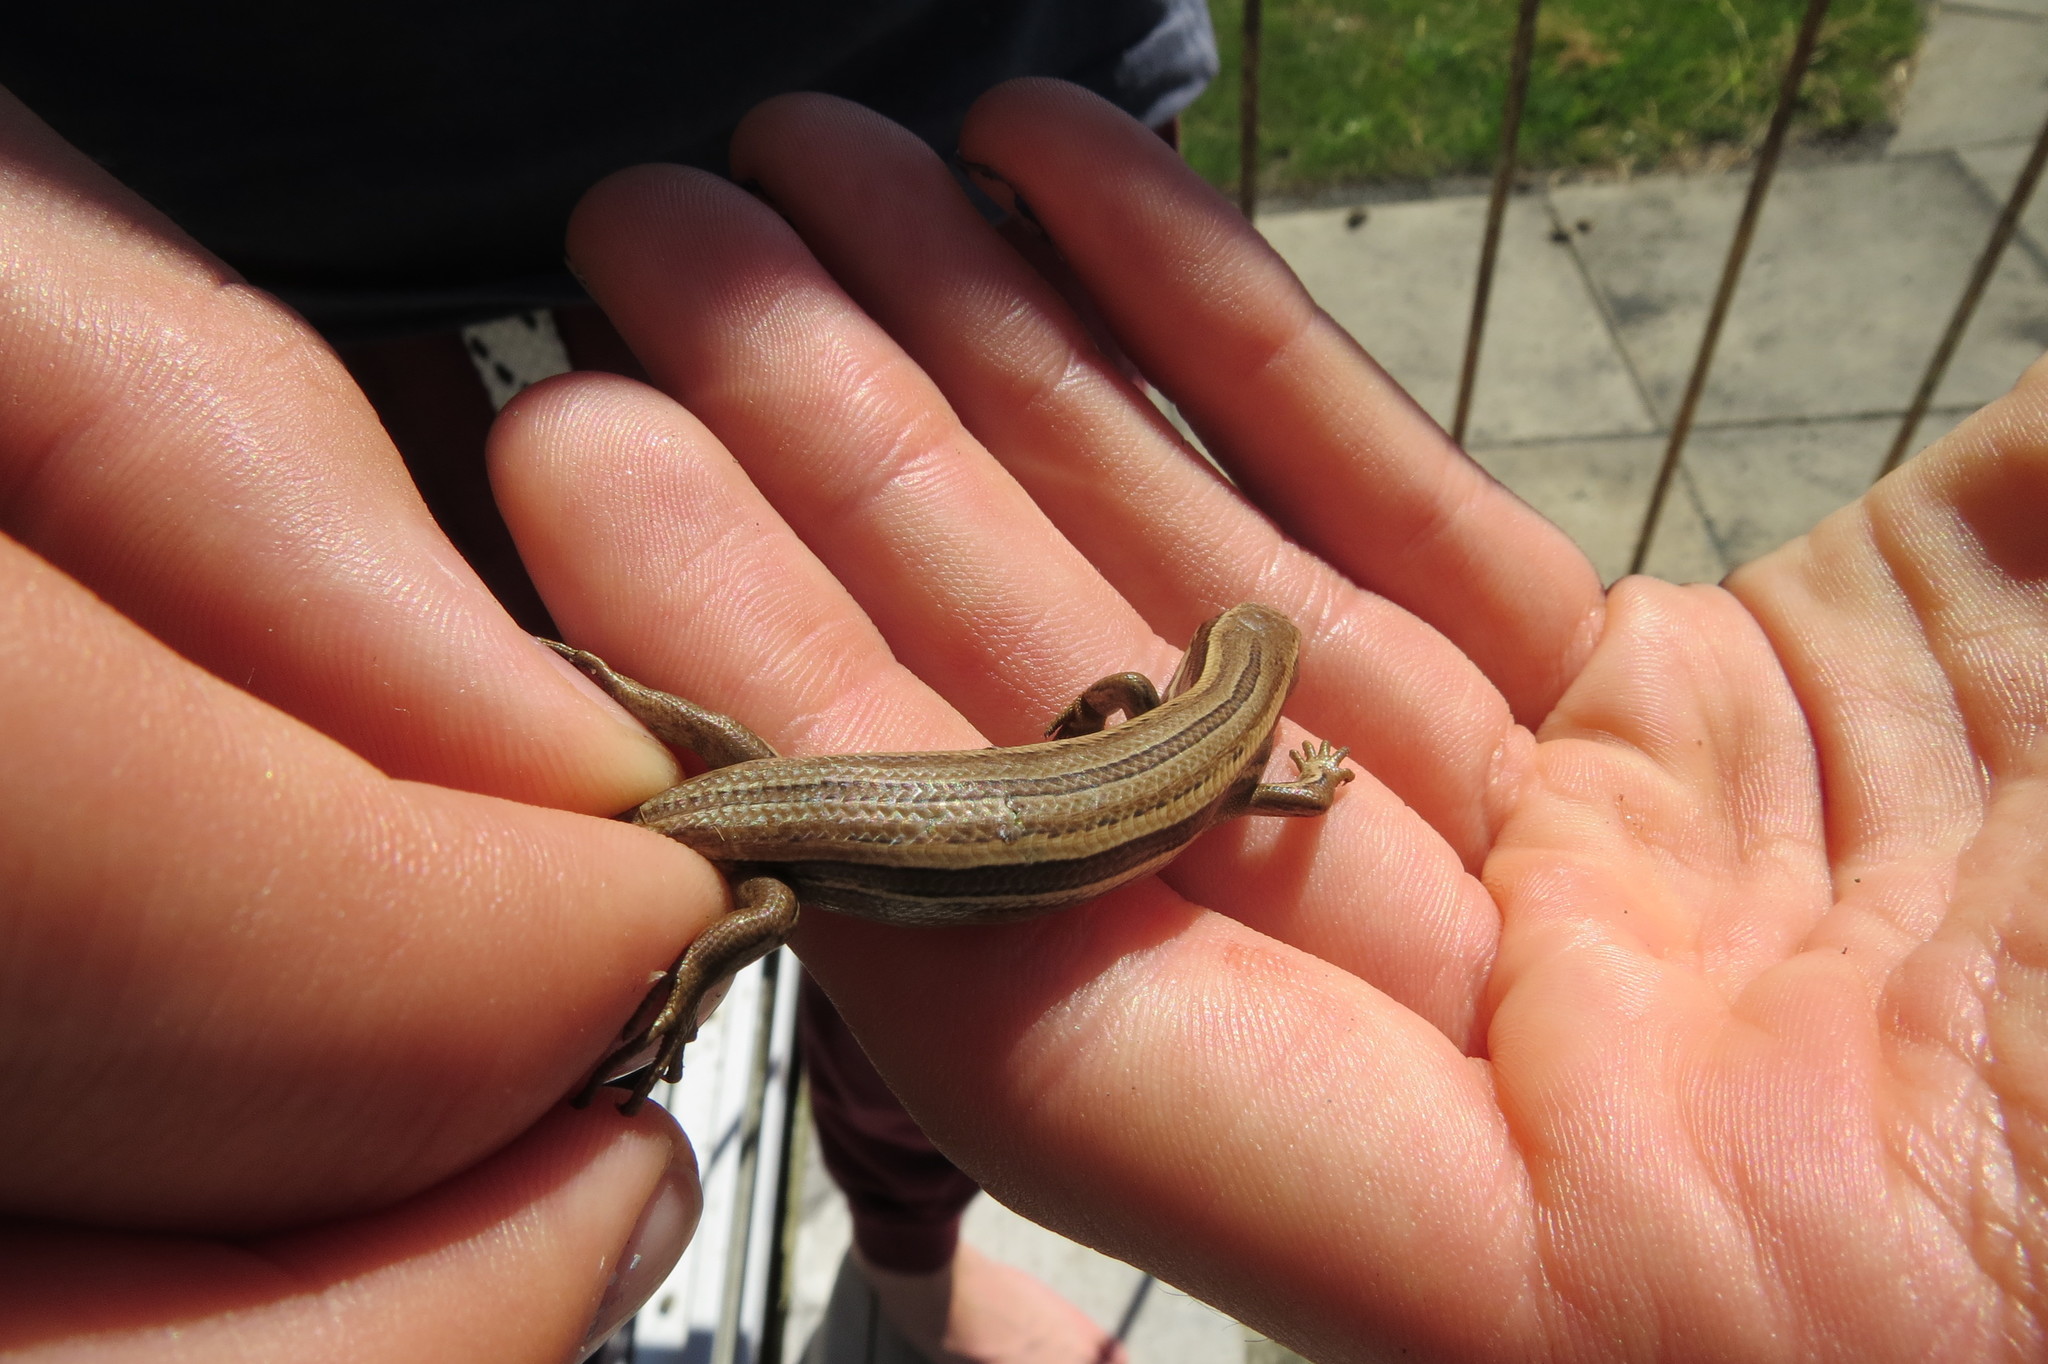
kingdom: Animalia
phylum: Chordata
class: Squamata
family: Scincidae
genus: Oligosoma
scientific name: Oligosoma polychroma
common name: Common new zealand skink
